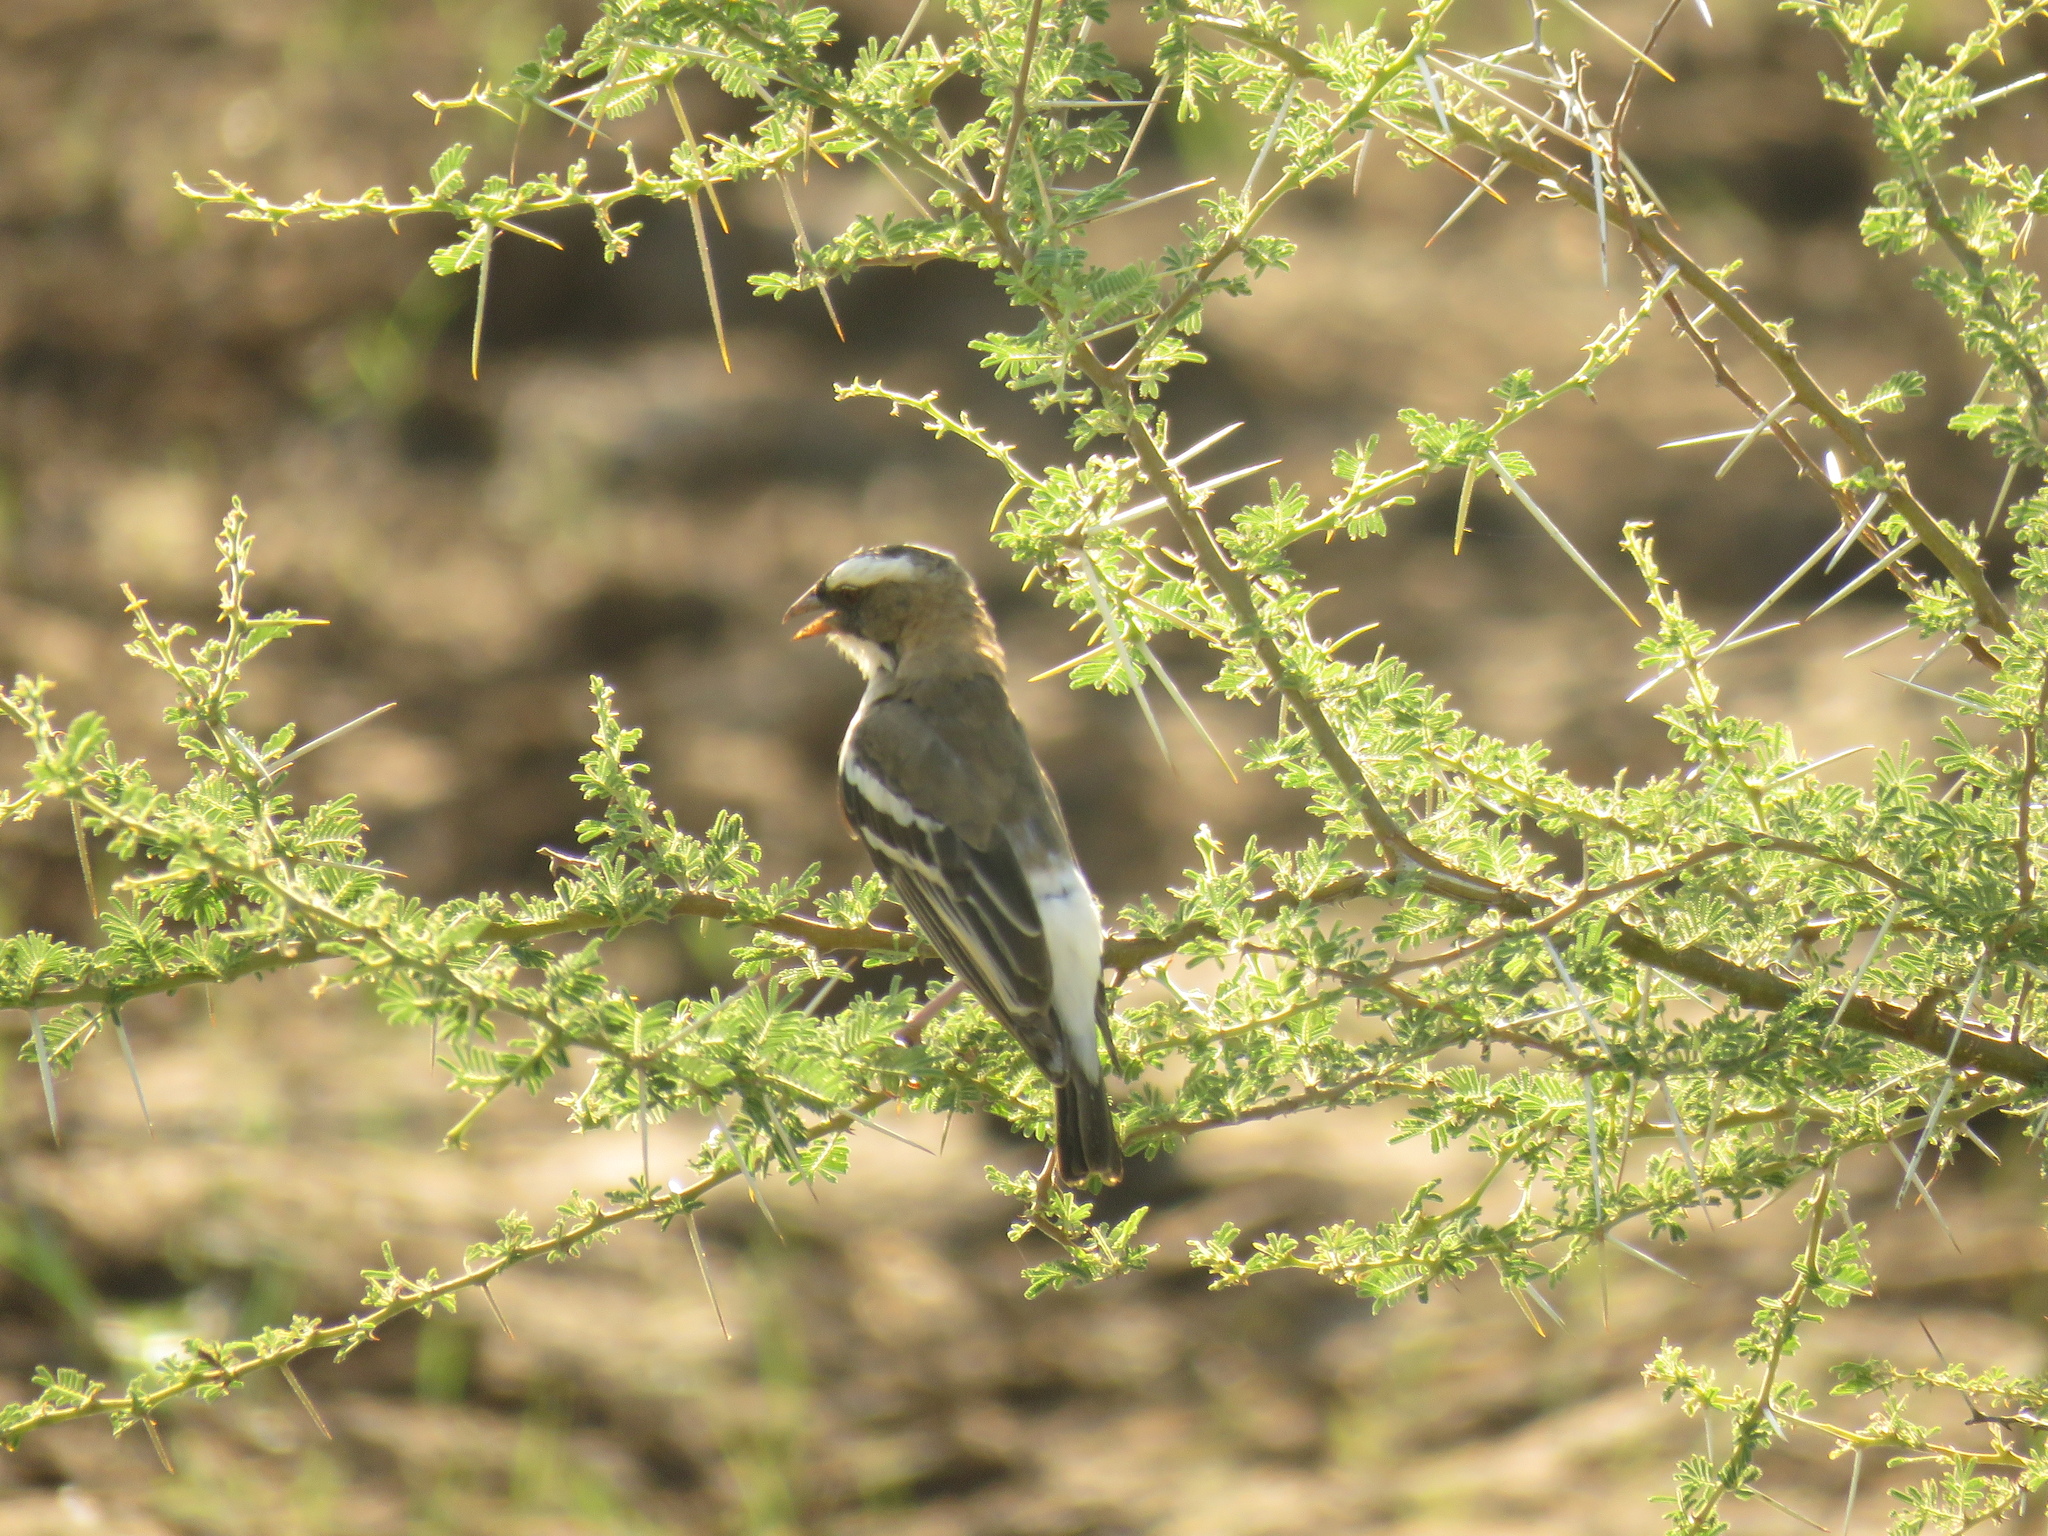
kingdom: Animalia
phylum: Chordata
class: Aves
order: Passeriformes
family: Passeridae
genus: Plocepasser
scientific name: Plocepasser mahali
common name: White-browed sparrow-weaver
